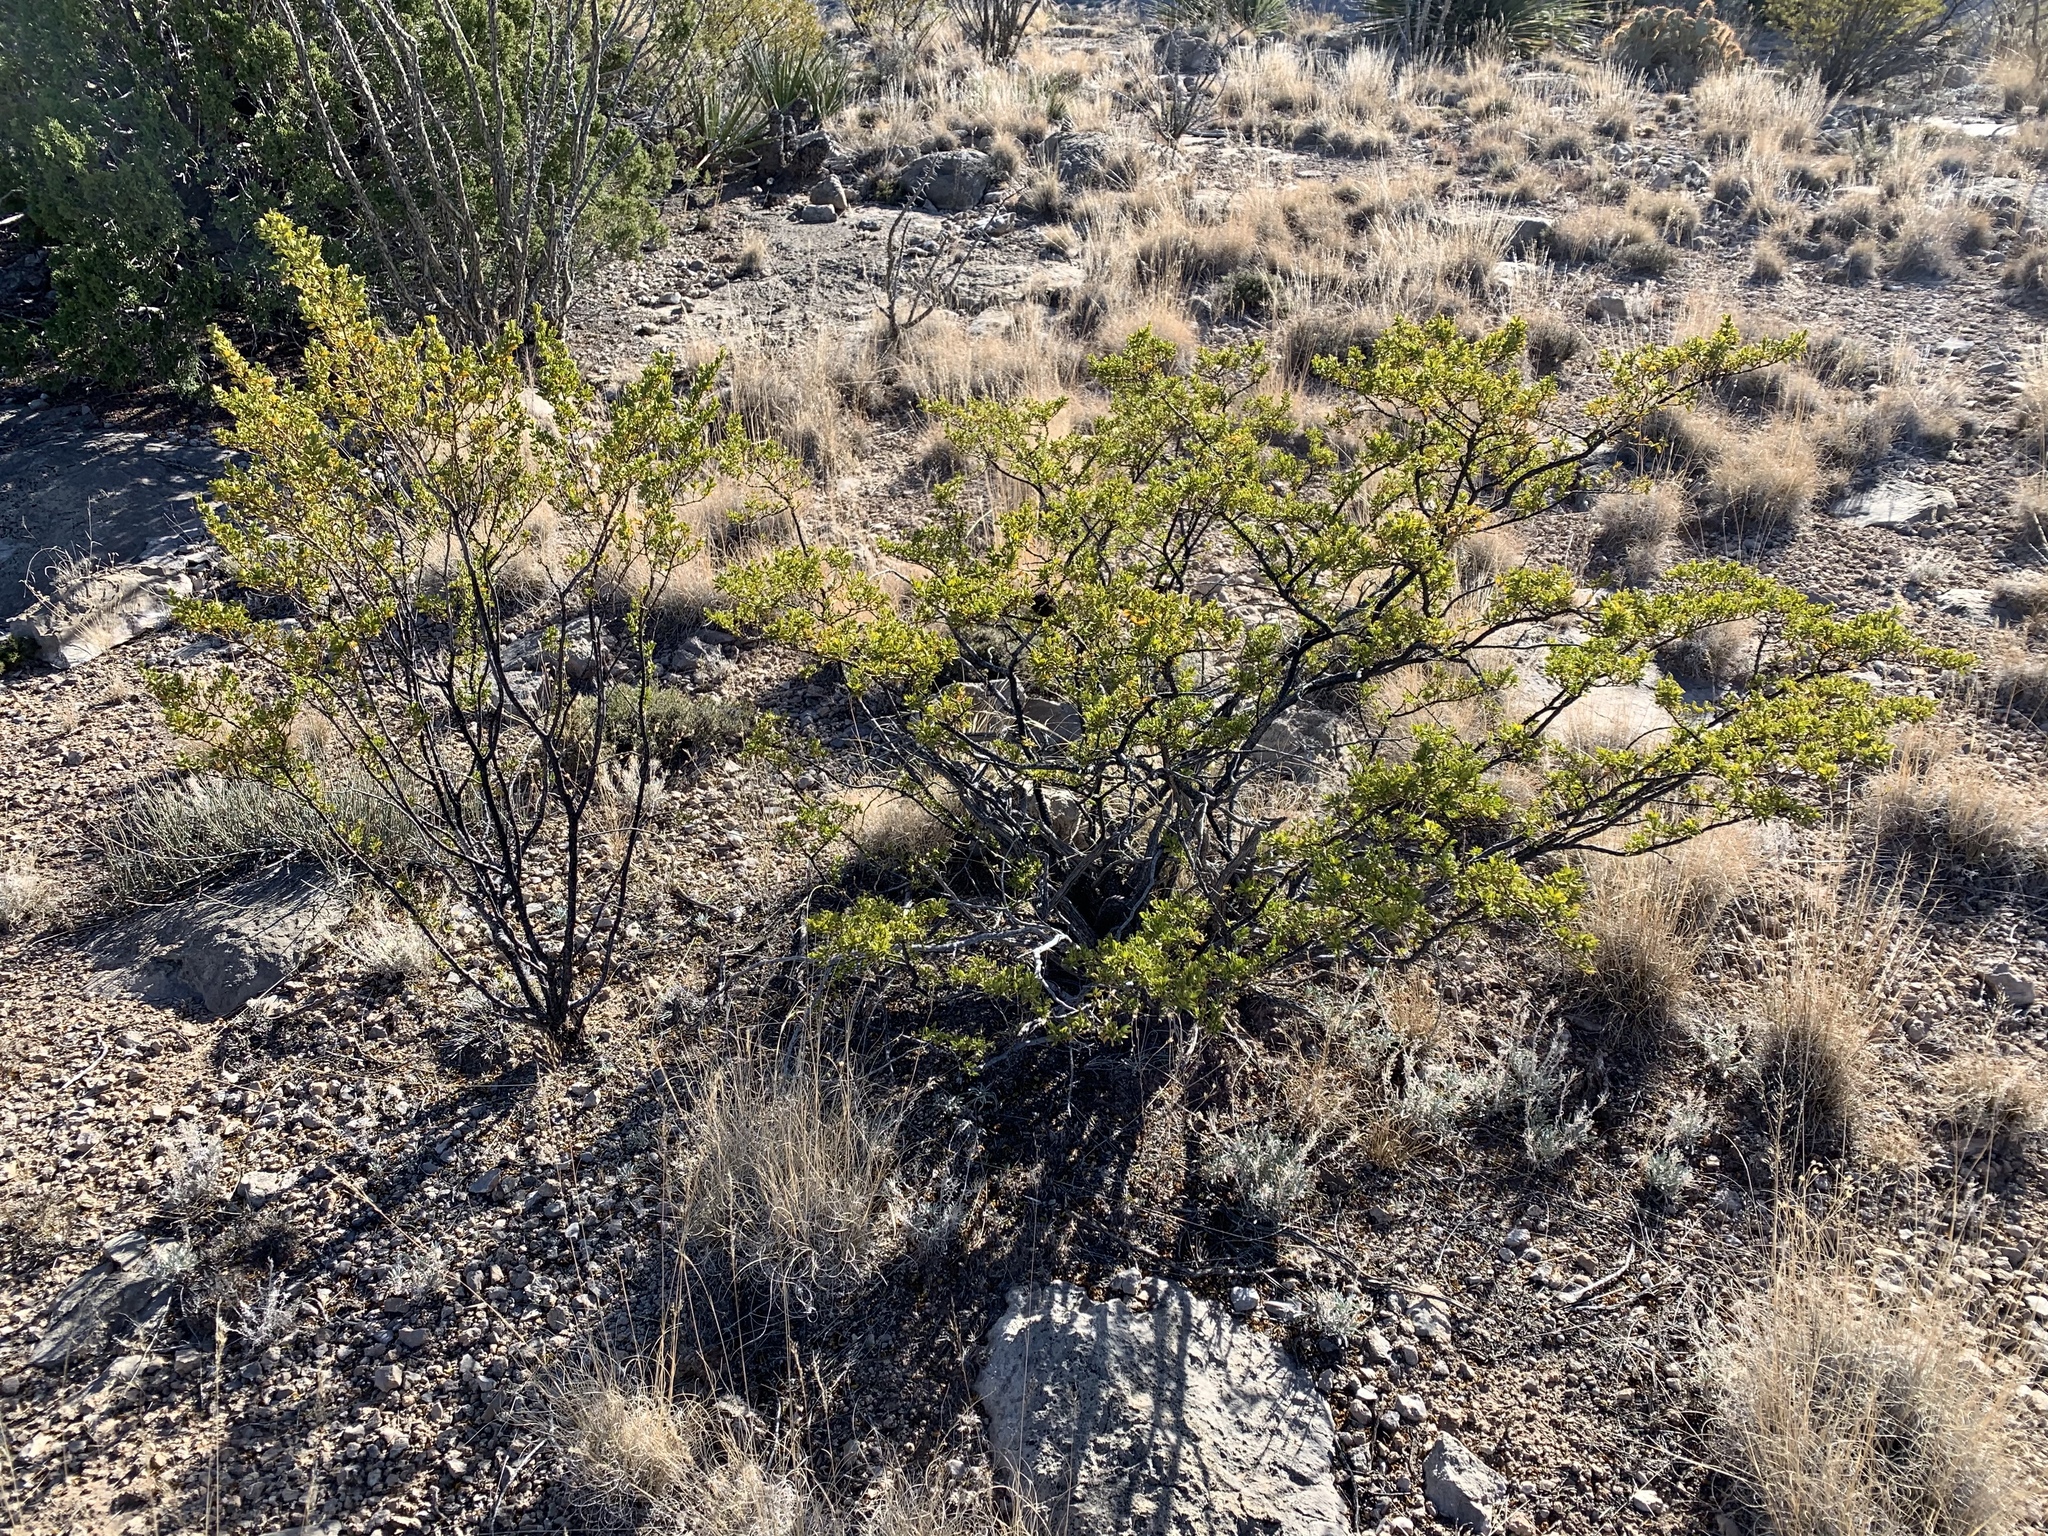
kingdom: Plantae
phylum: Tracheophyta
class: Magnoliopsida
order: Zygophyllales
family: Zygophyllaceae
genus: Larrea
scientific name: Larrea tridentata
